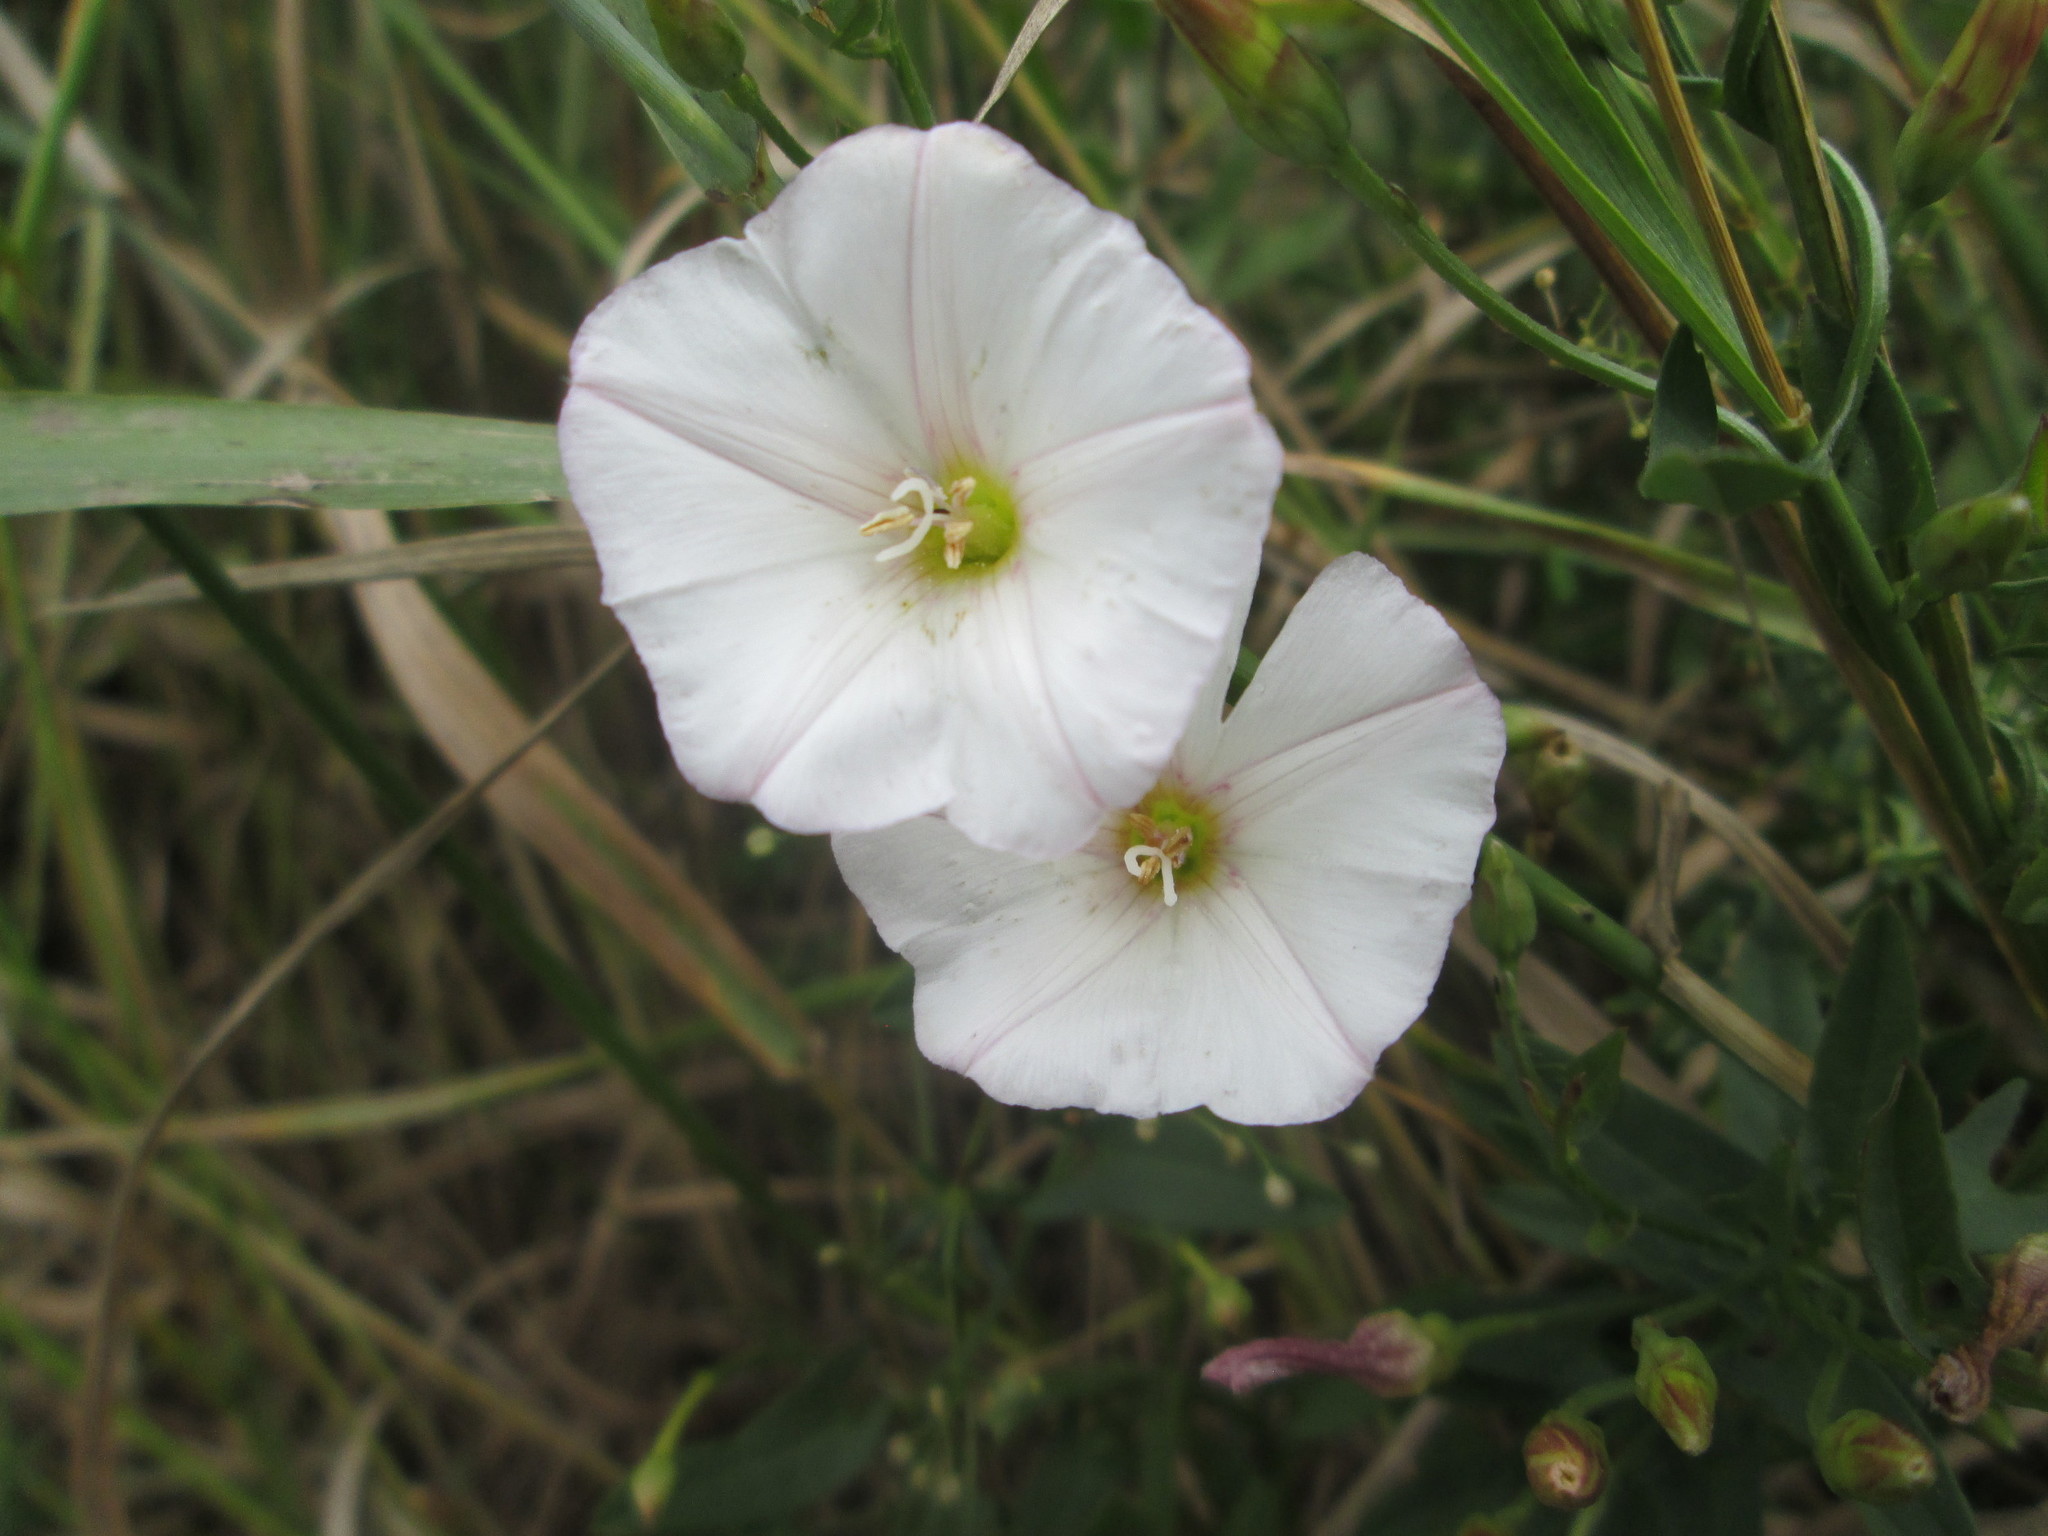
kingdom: Plantae
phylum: Tracheophyta
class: Magnoliopsida
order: Solanales
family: Convolvulaceae
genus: Convolvulus
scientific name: Convolvulus arvensis
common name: Field bindweed
